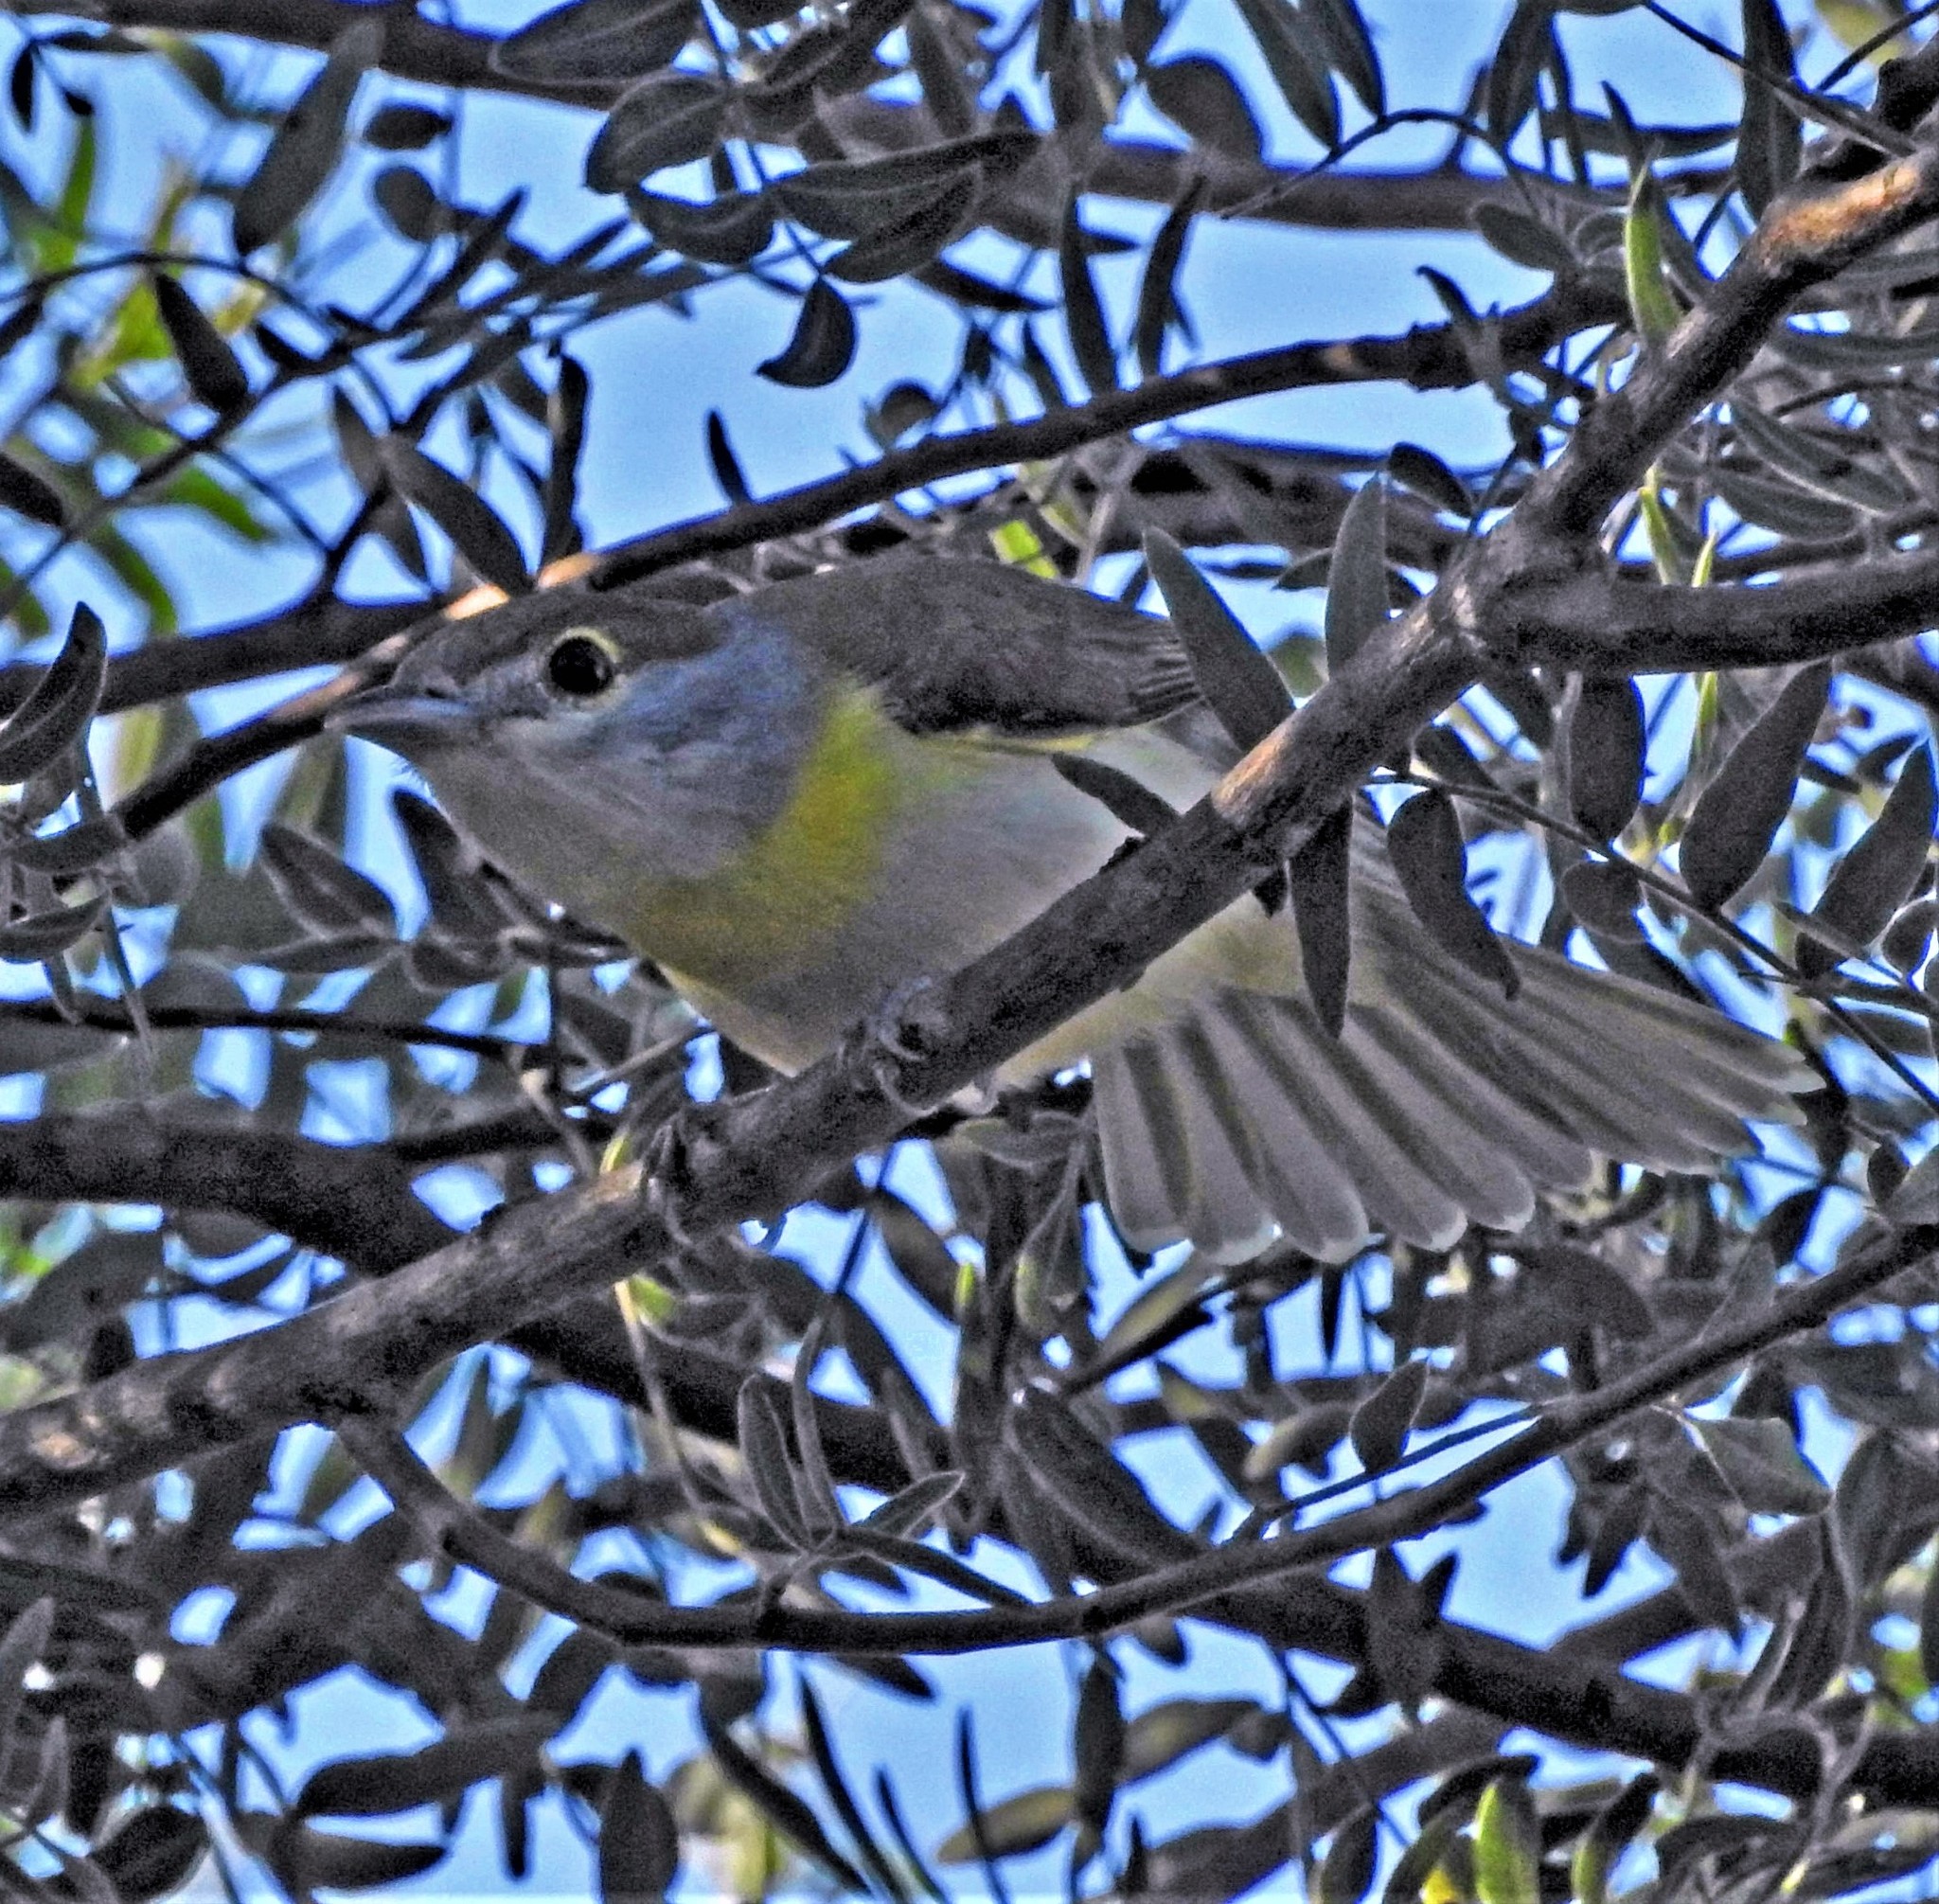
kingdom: Animalia
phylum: Chordata
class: Aves
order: Passeriformes
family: Cotingidae
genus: Pachyramphus
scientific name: Pachyramphus viridis
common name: Green-backed becard
